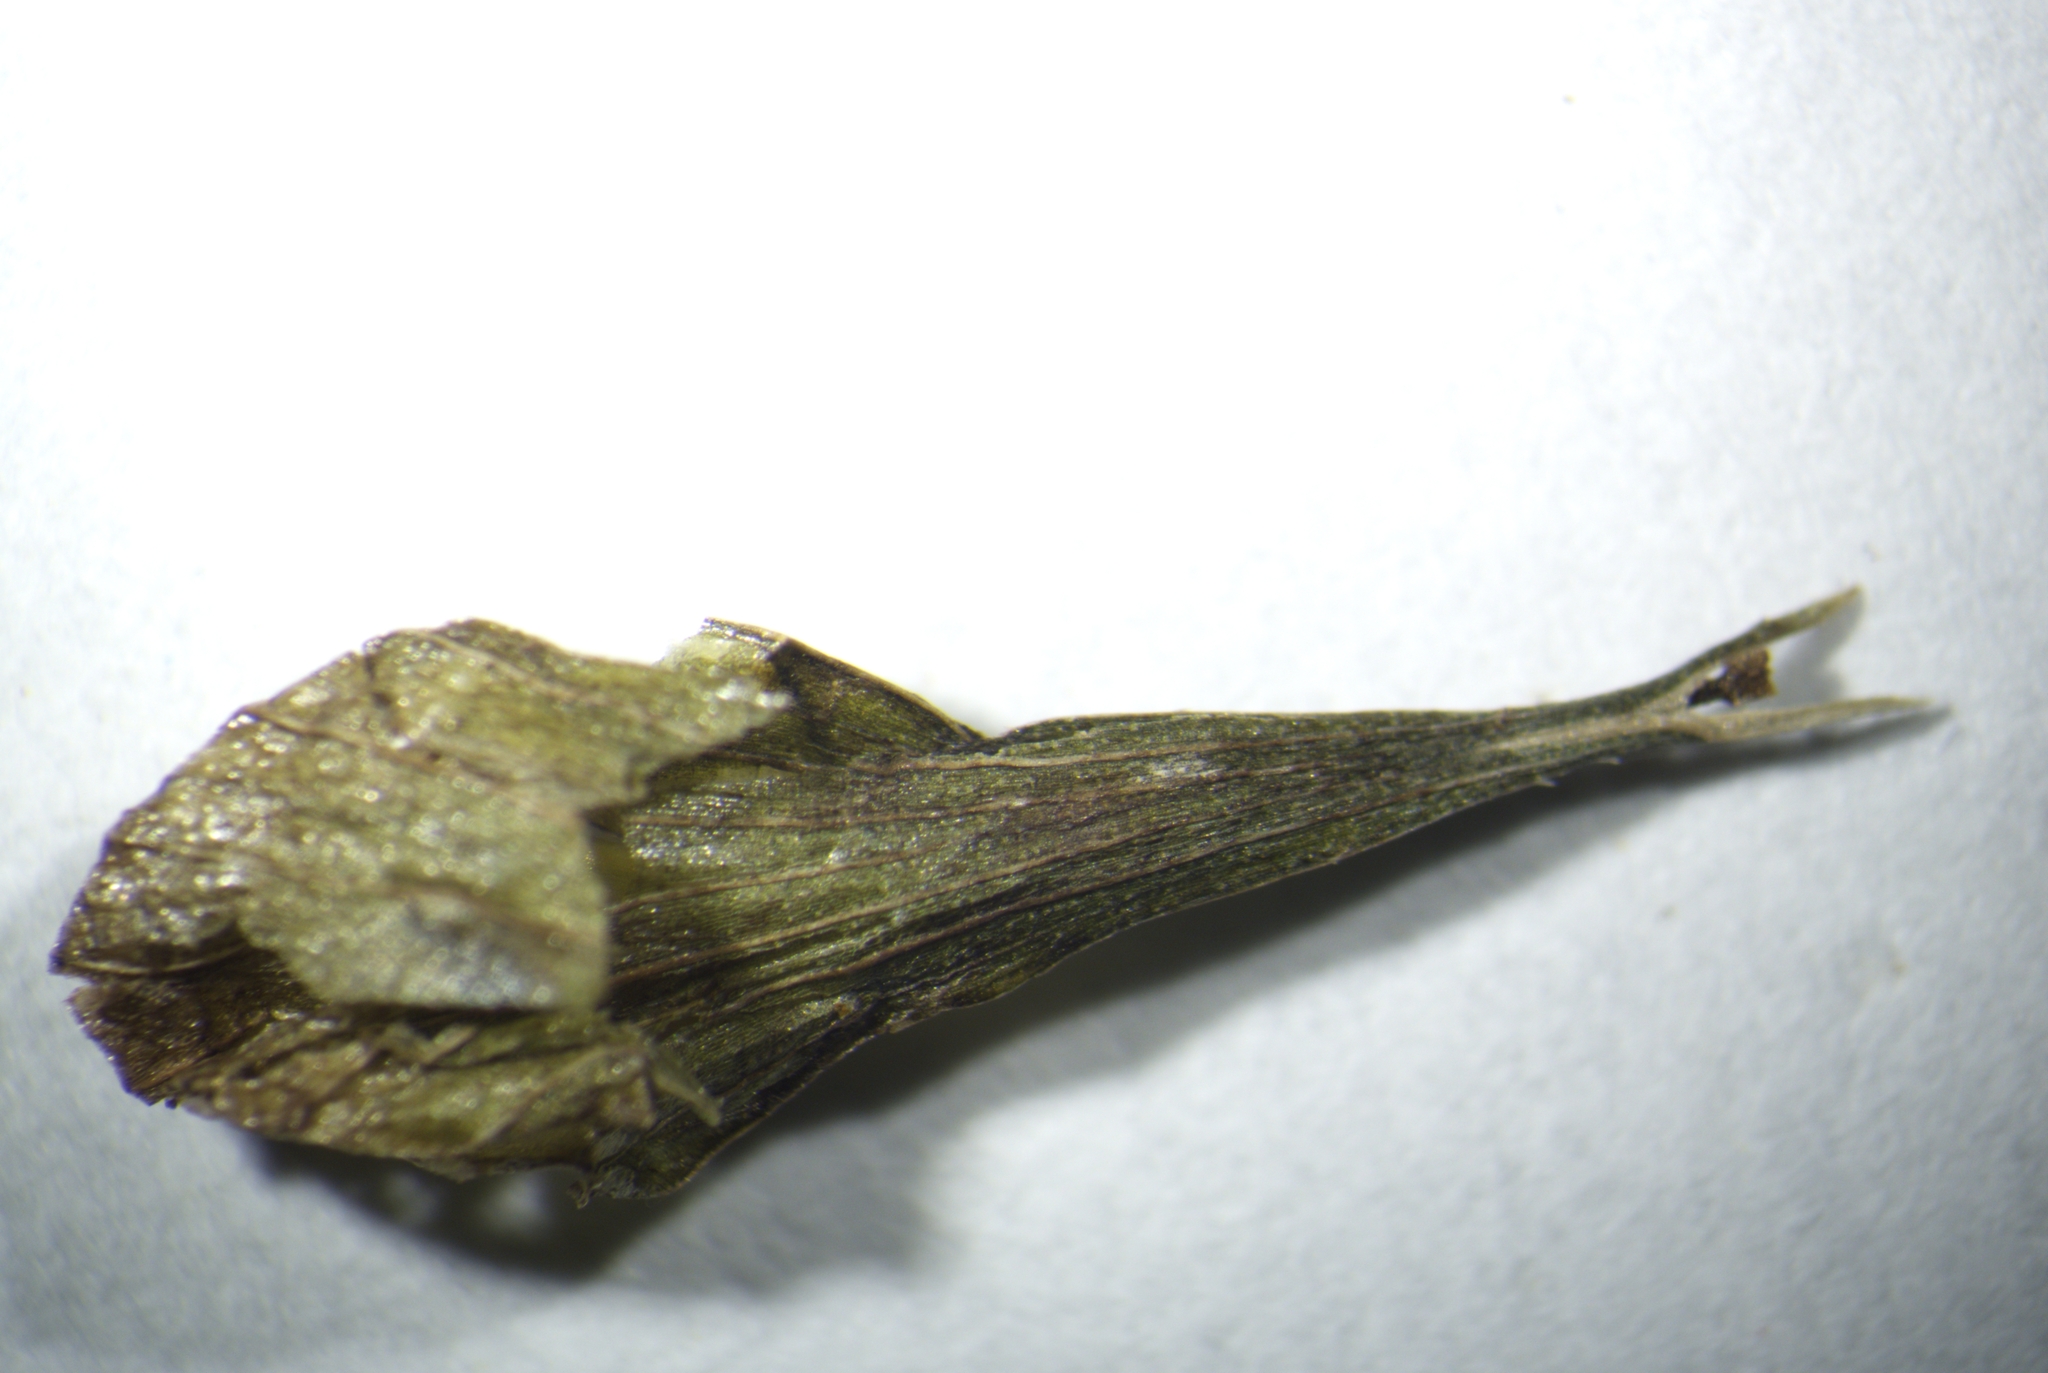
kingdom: Plantae
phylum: Tracheophyta
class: Liliopsida
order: Poales
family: Cyperaceae
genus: Carex
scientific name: Carex louisianica
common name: Louisiana sedge
